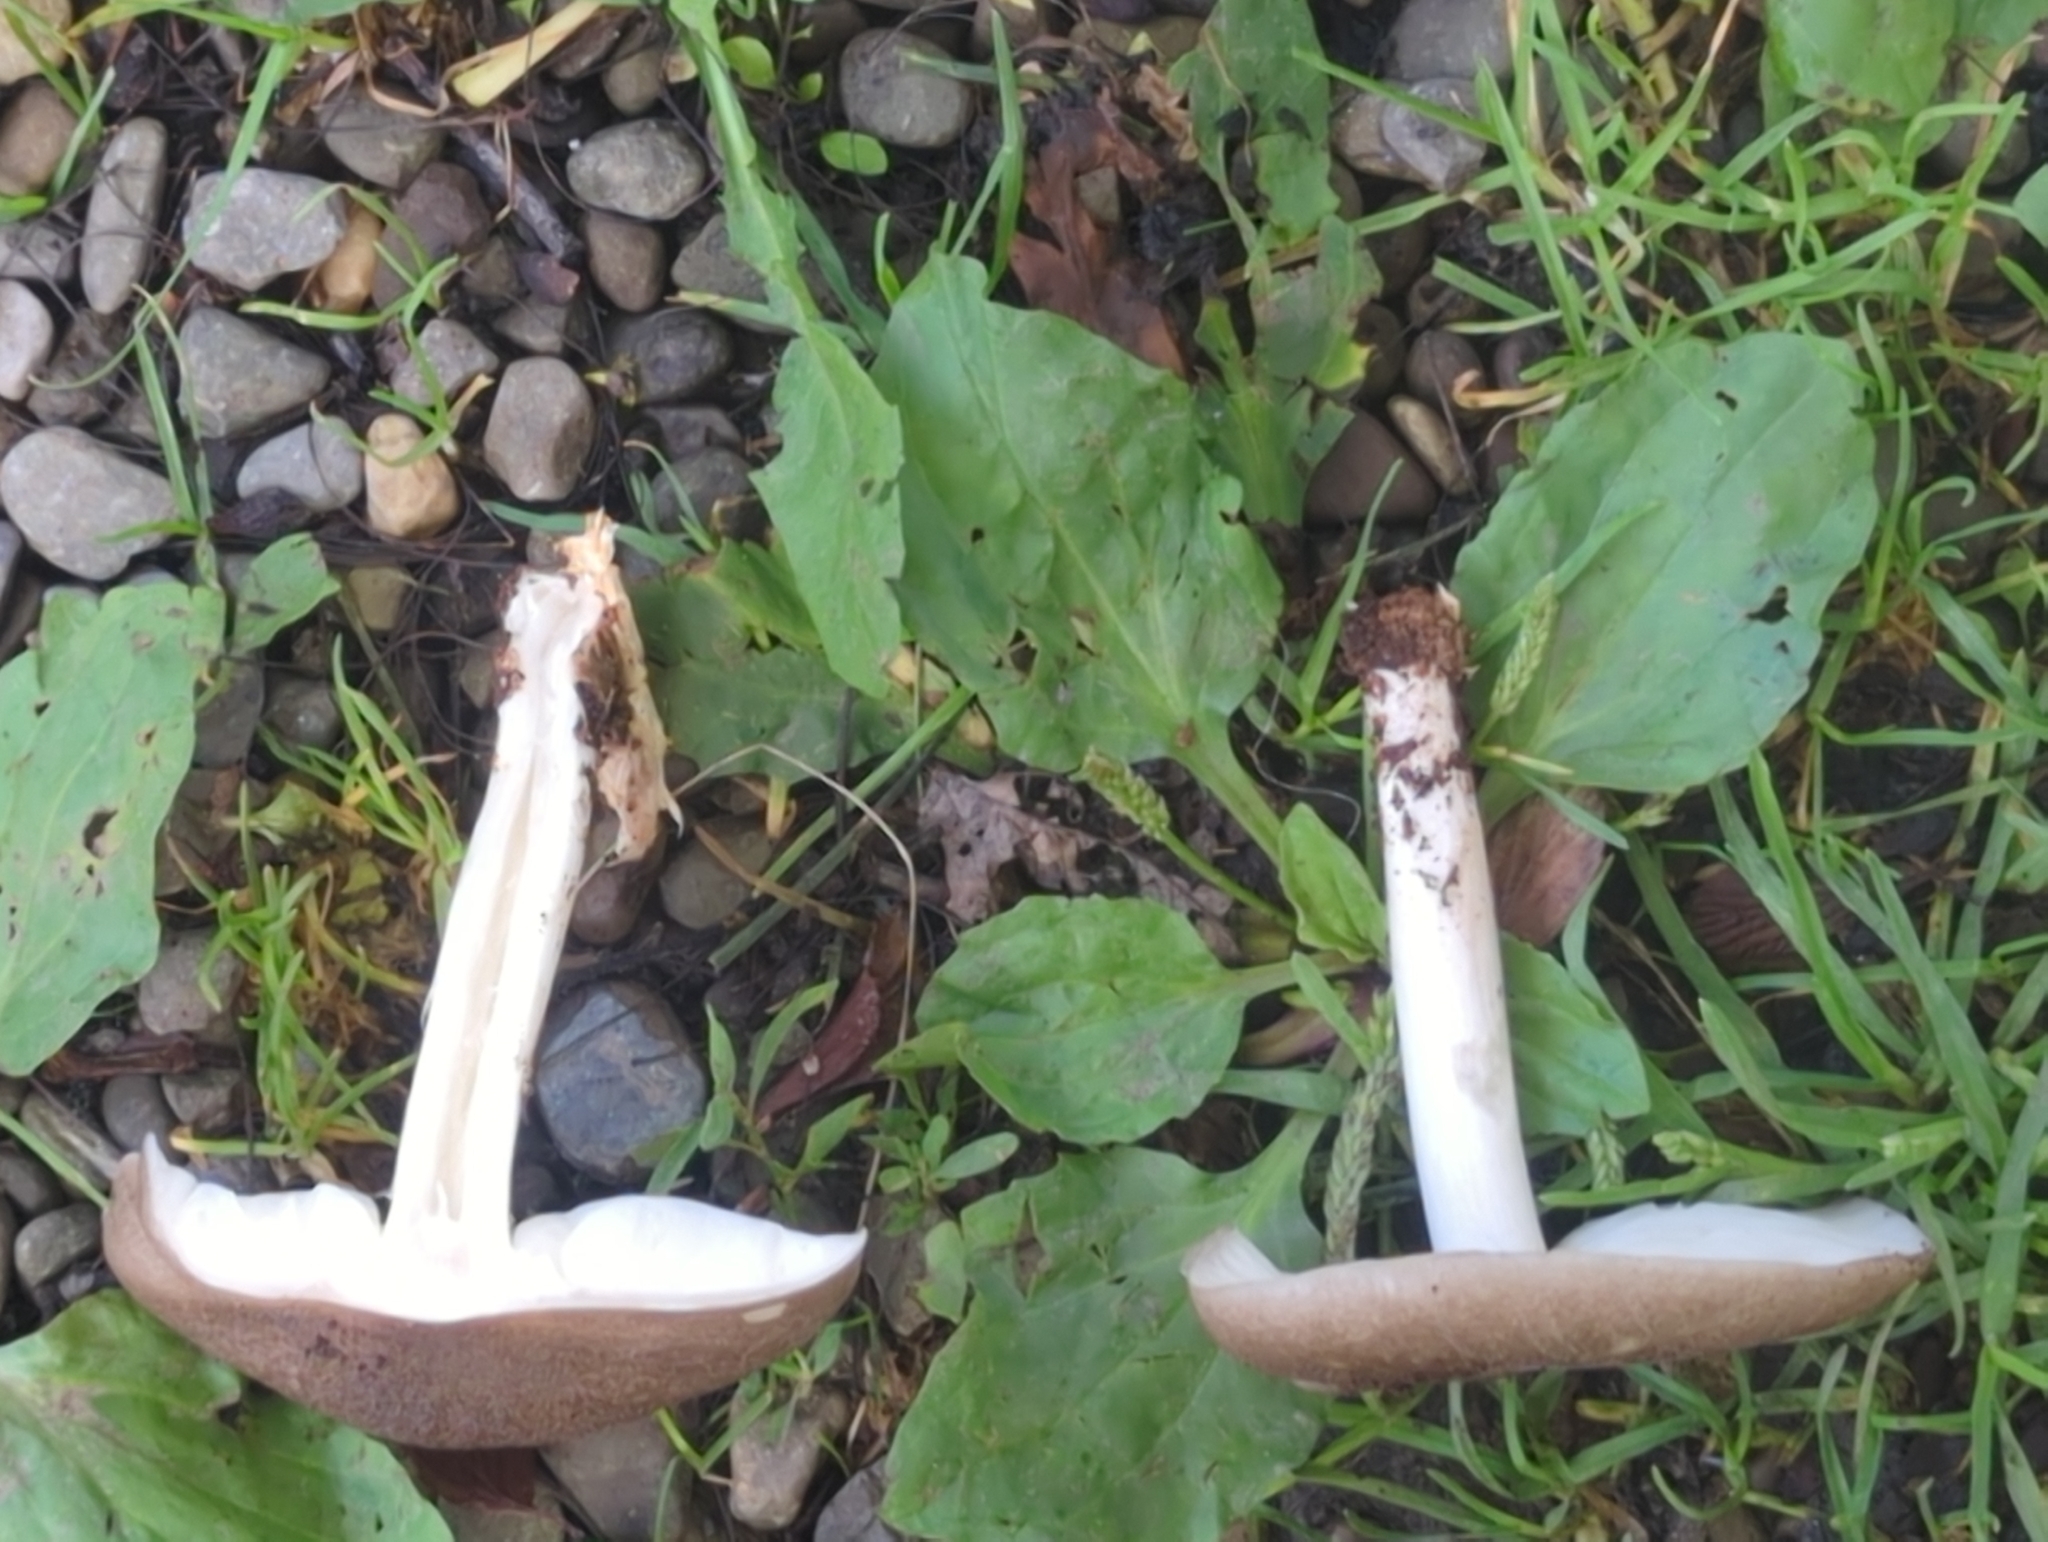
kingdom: Fungi
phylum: Basidiomycota
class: Agaricomycetes
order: Agaricales
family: Tricholomataceae
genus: Megacollybia
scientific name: Megacollybia rodmanii
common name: Eastern american platterful mushroom
